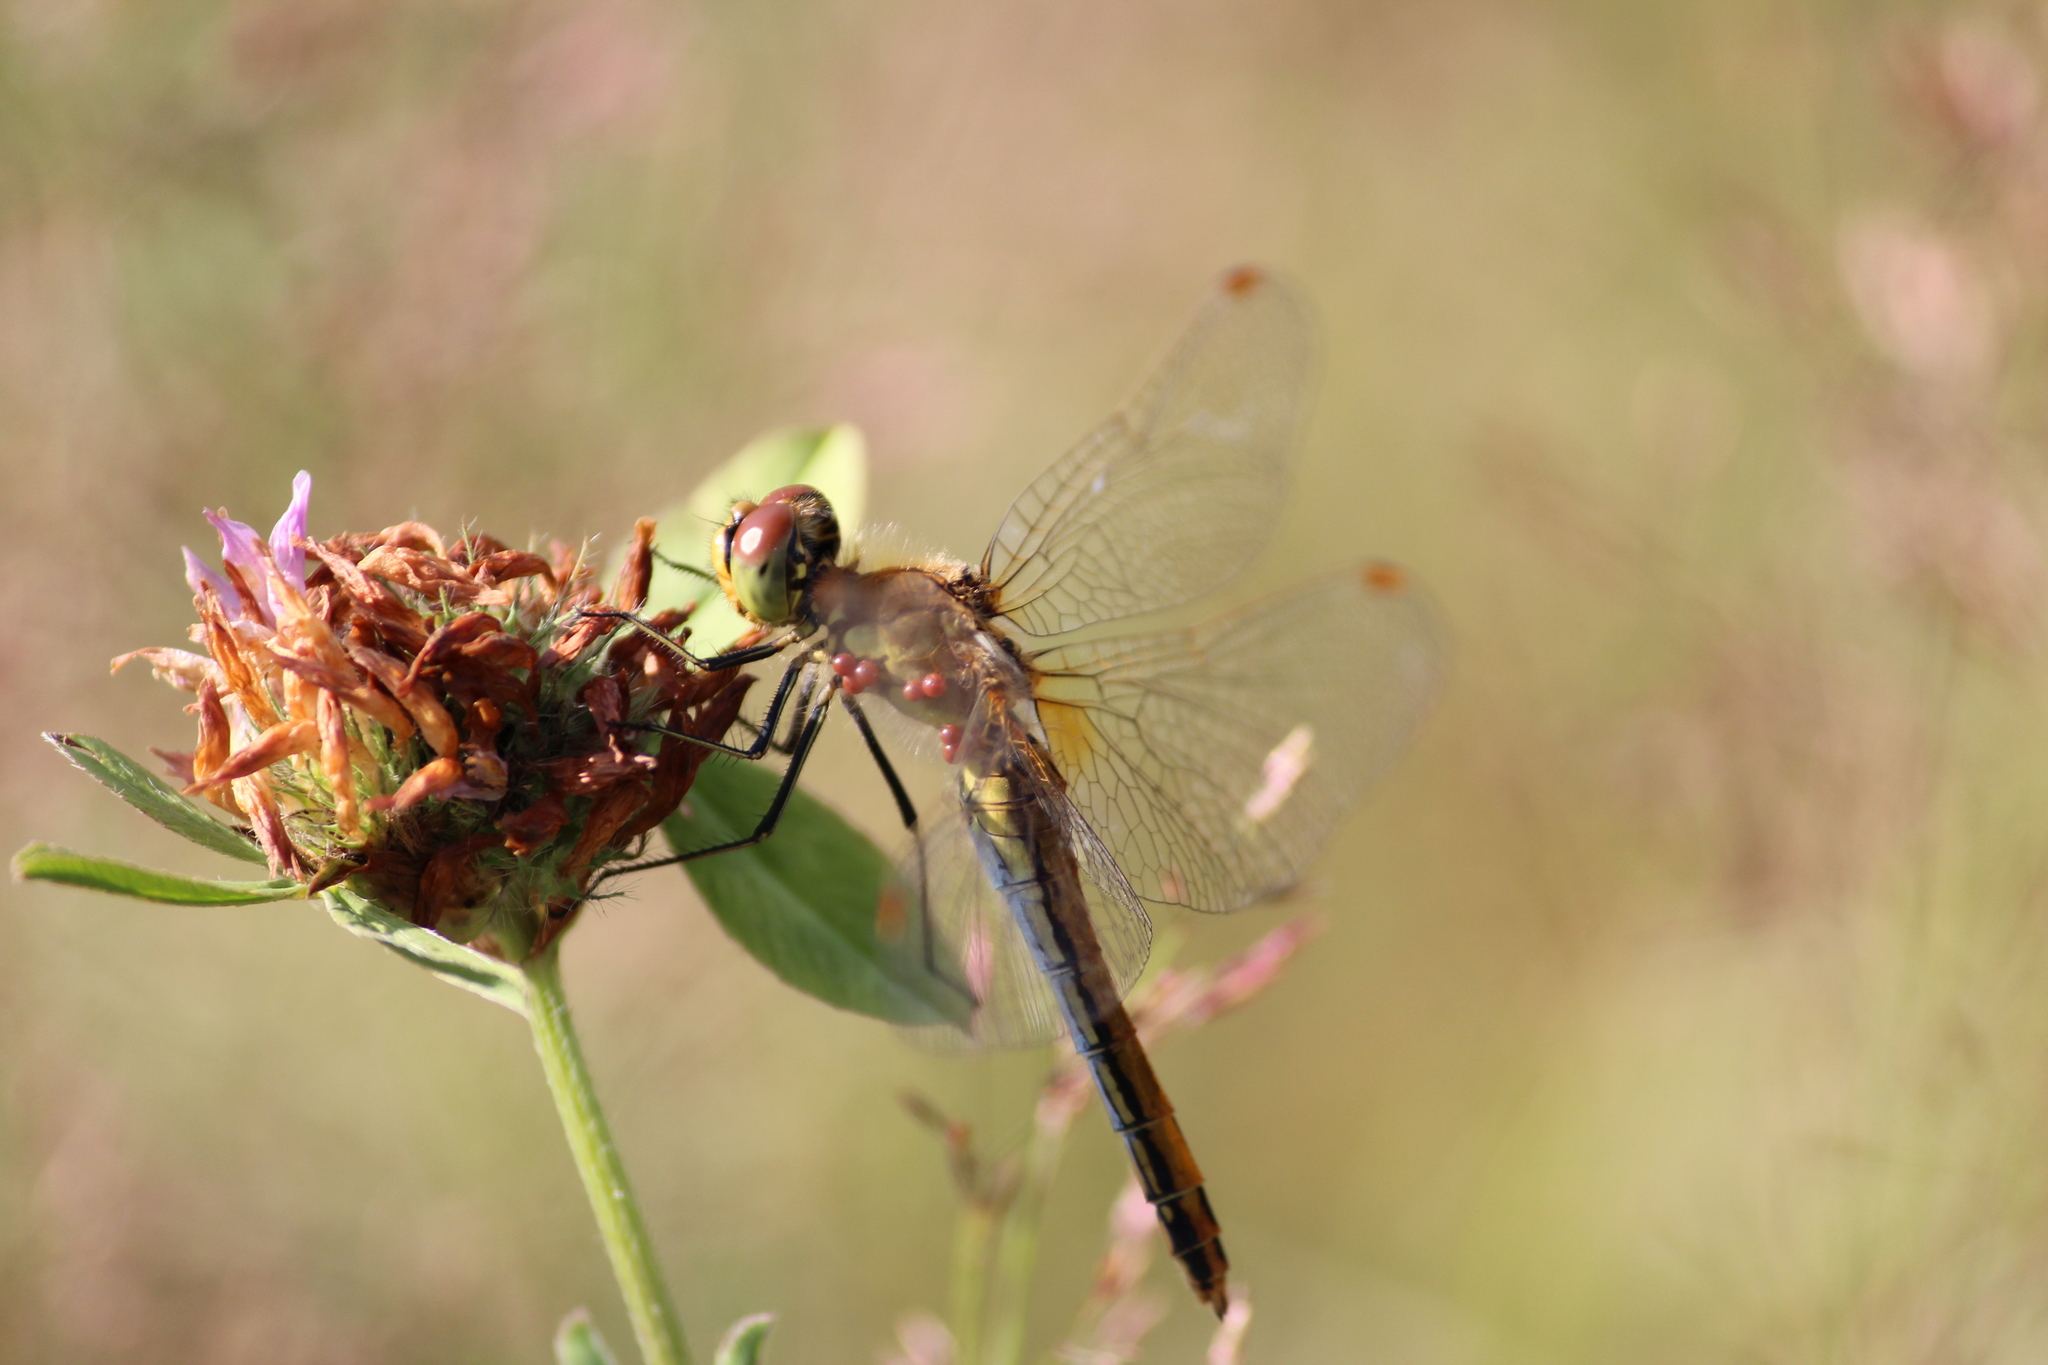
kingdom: Animalia
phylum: Arthropoda
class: Insecta
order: Odonata
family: Libellulidae
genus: Sympetrum
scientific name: Sympetrum flaveolum
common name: Yellow-winged darter
